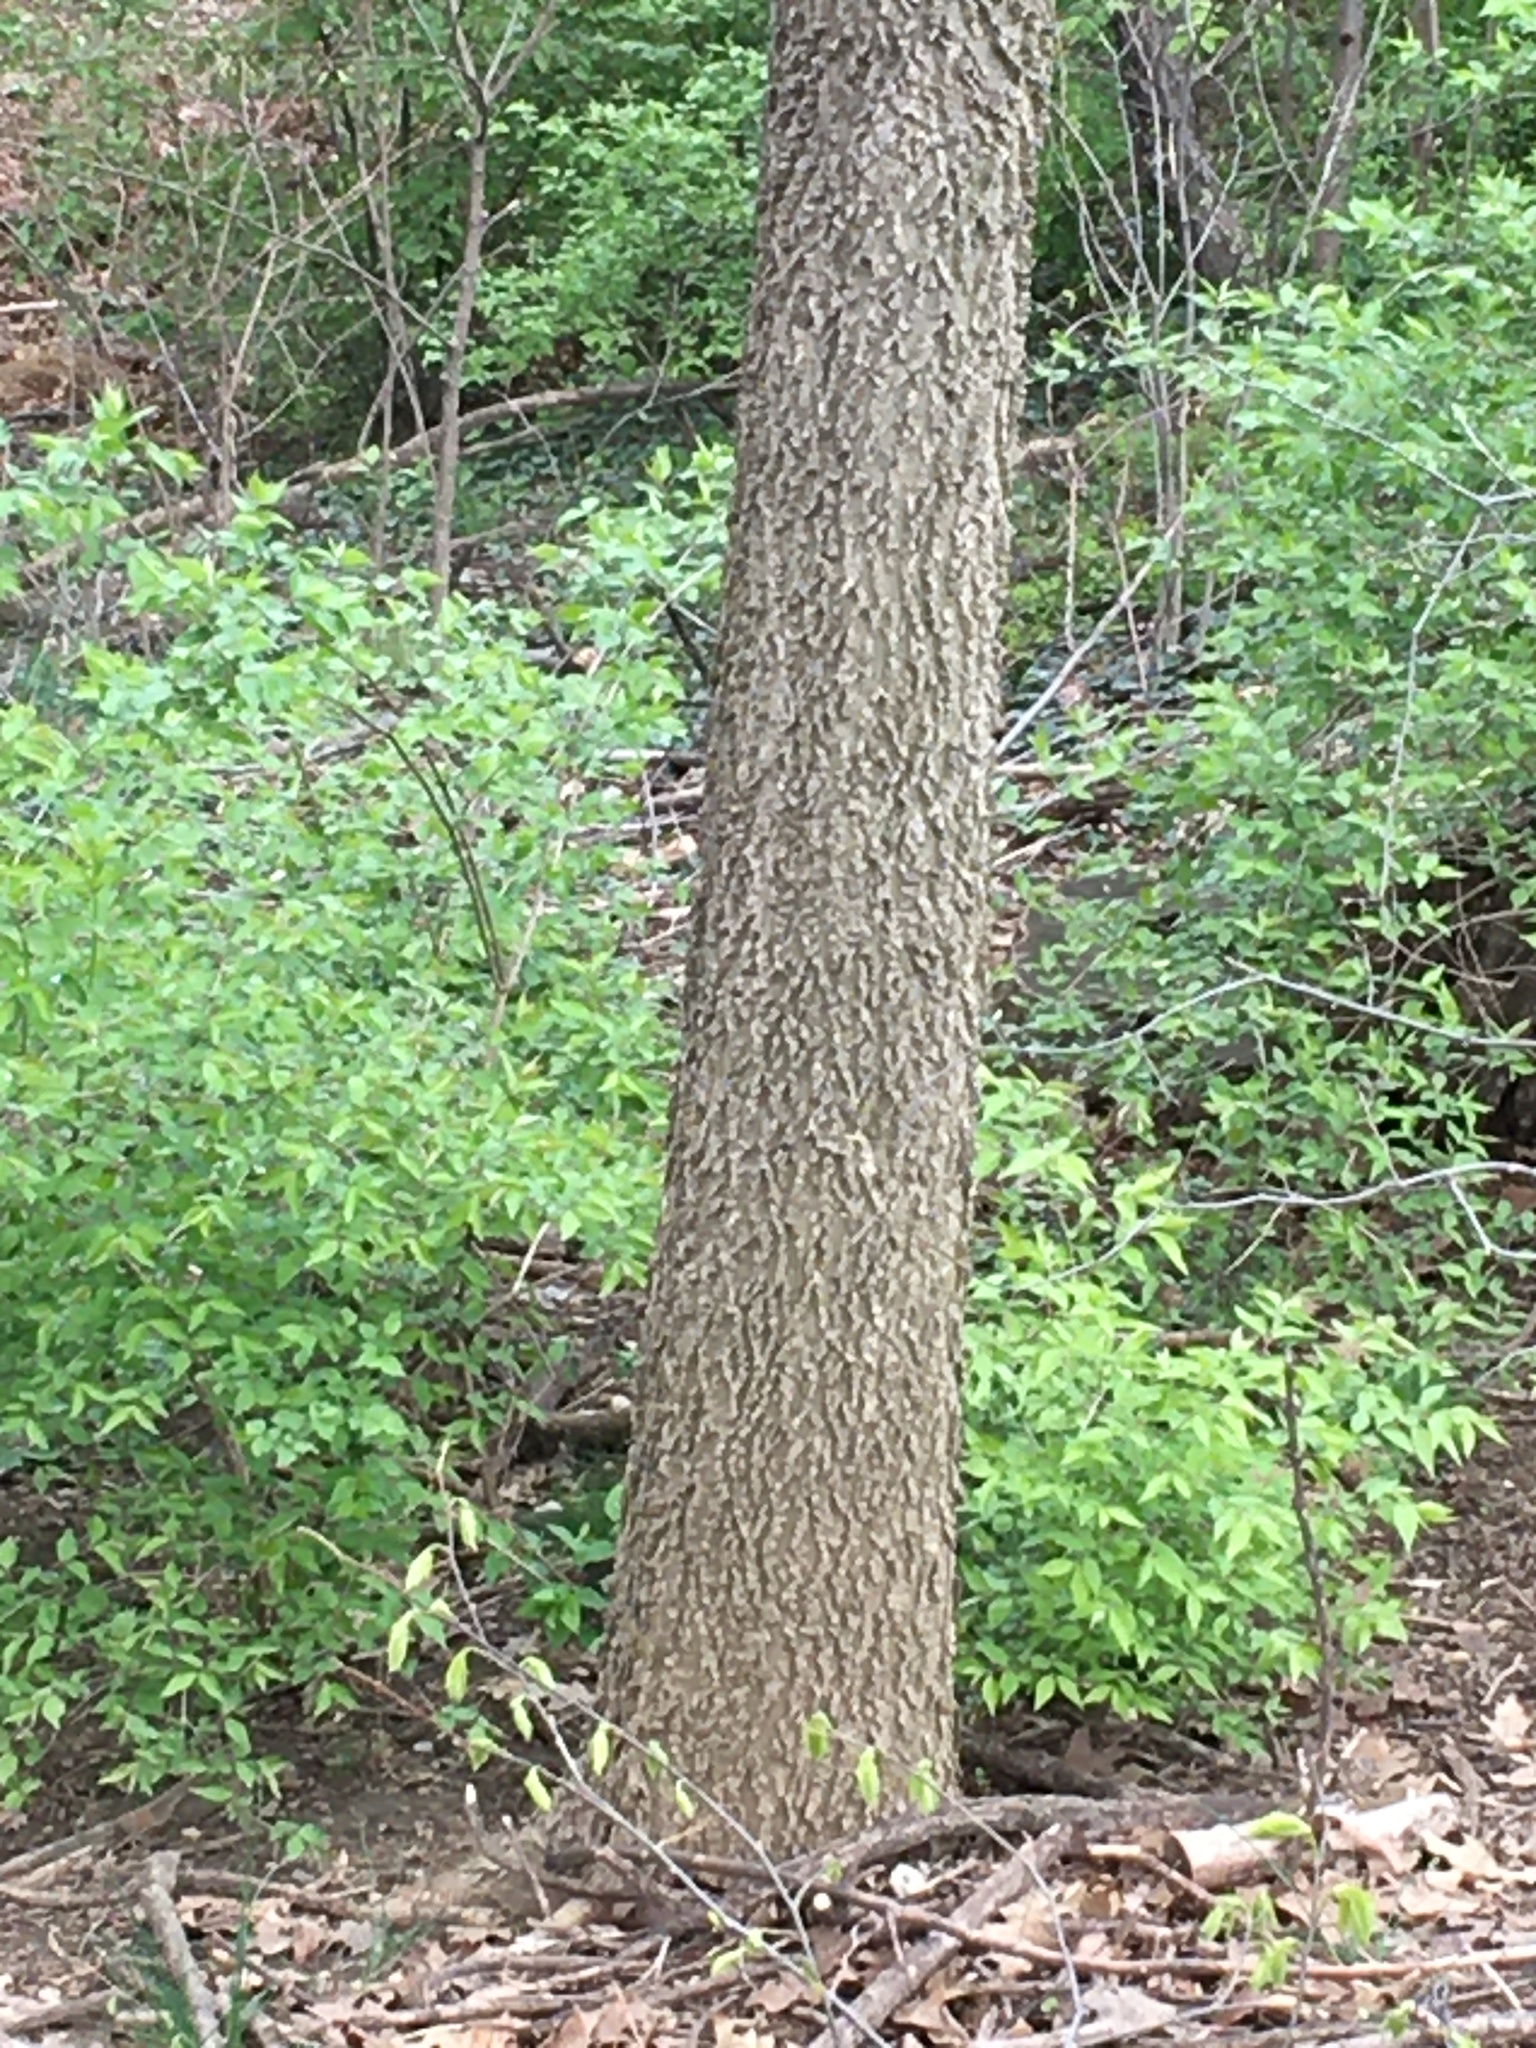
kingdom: Plantae
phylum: Tracheophyta
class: Magnoliopsida
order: Rosales
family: Cannabaceae
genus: Celtis
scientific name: Celtis occidentalis
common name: Common hackberry
